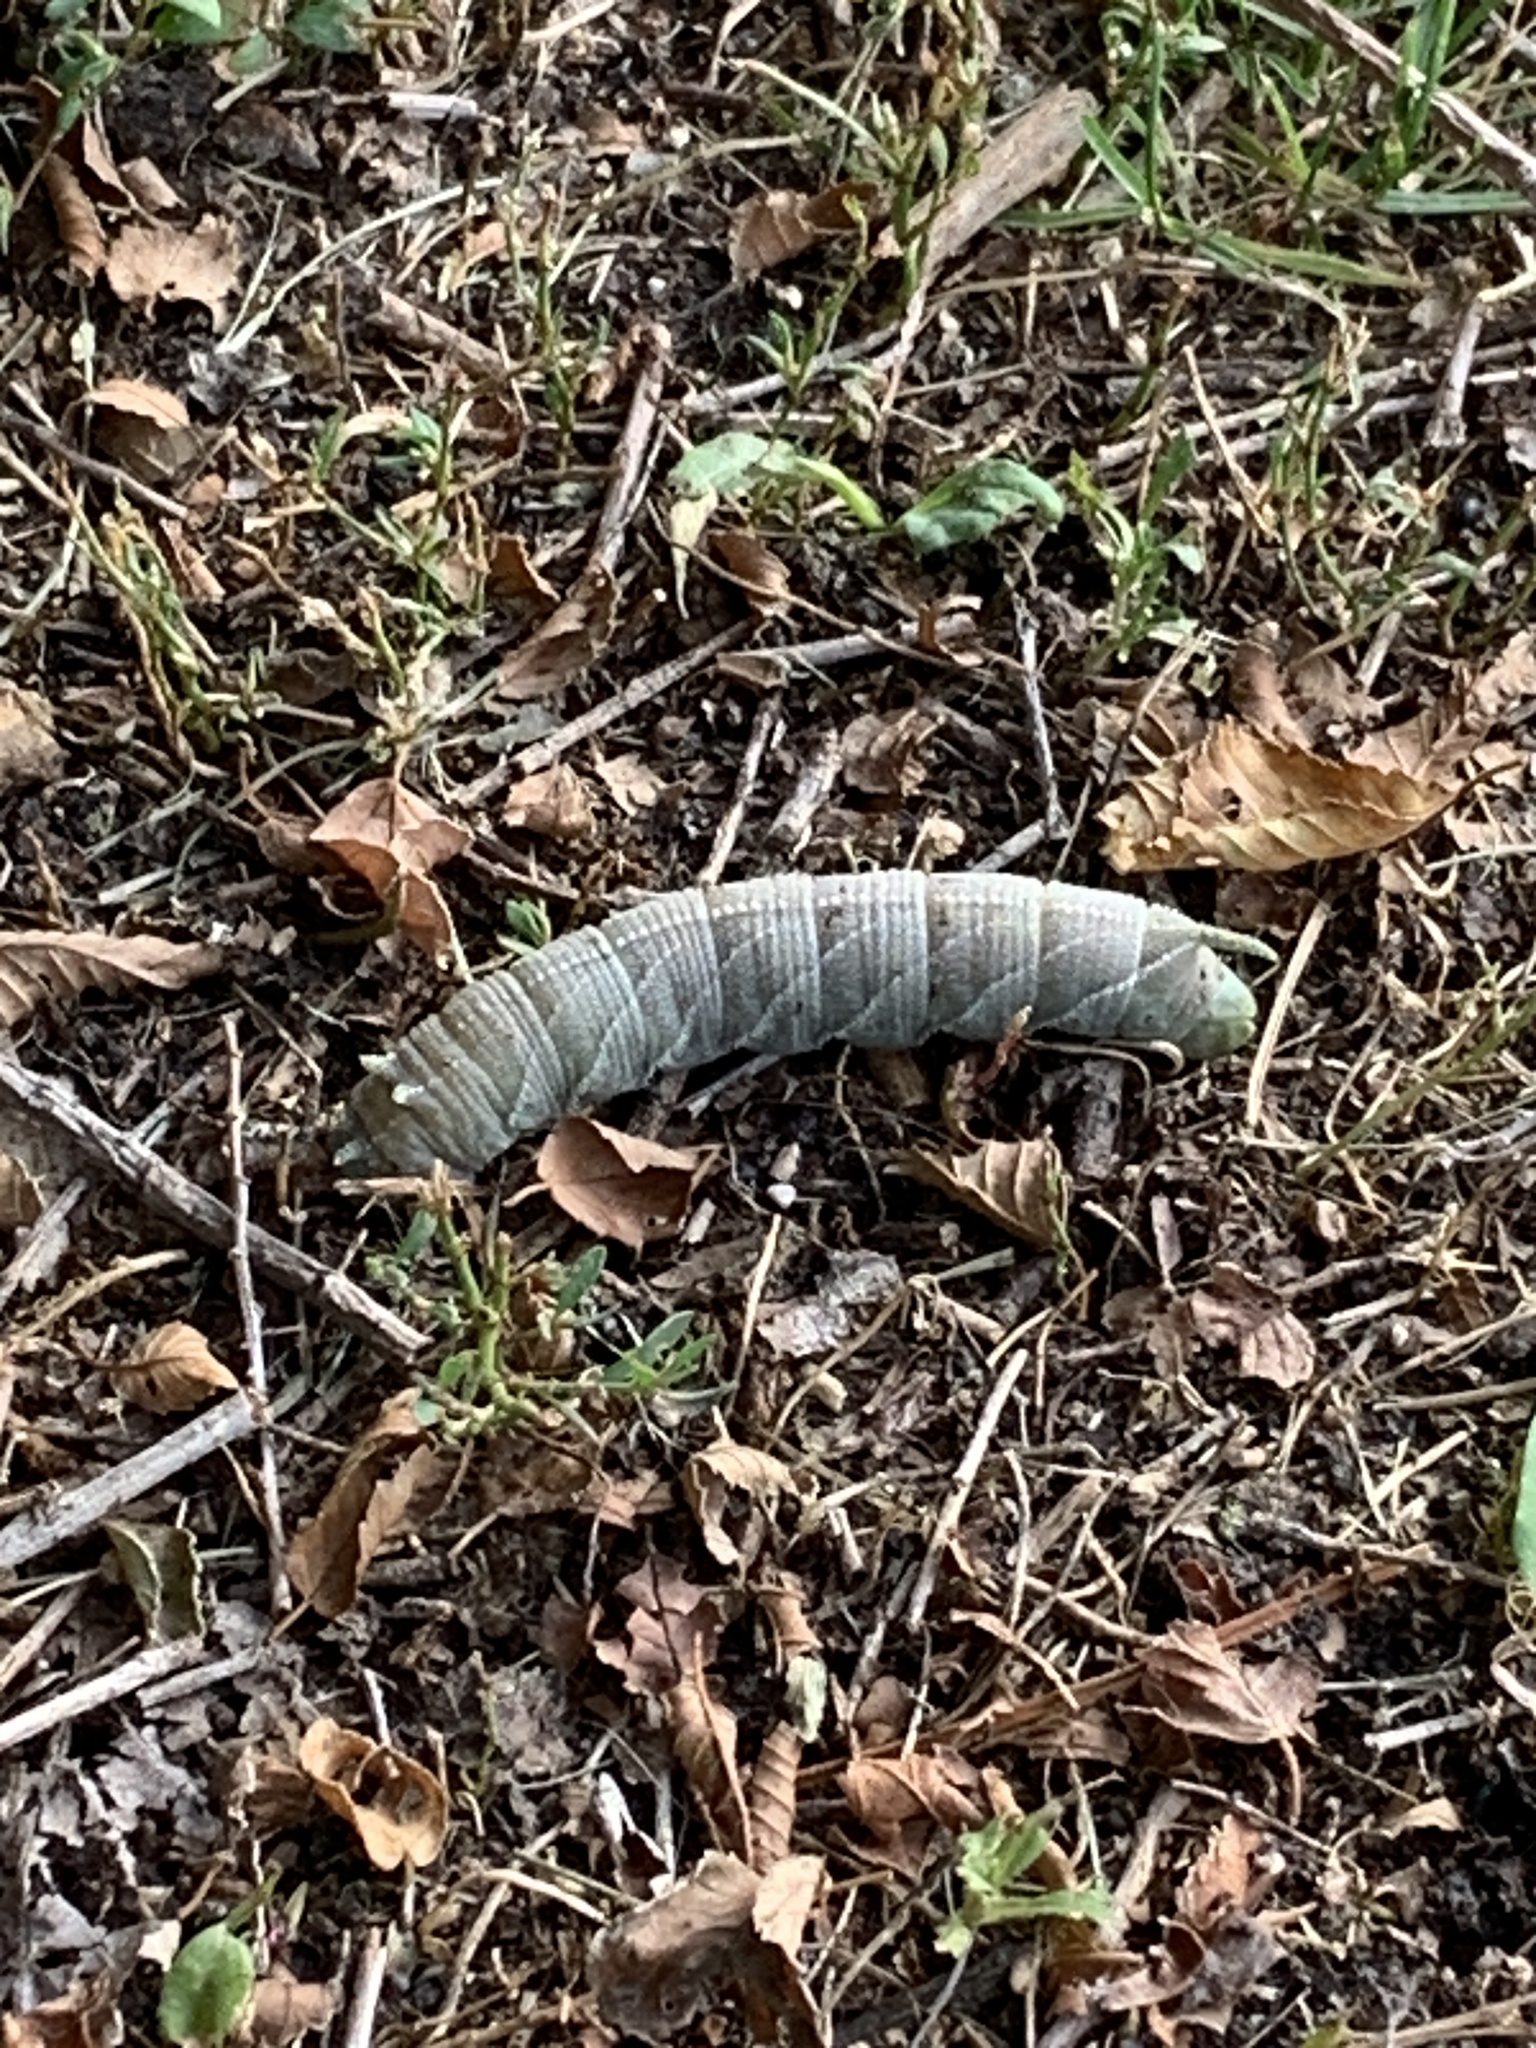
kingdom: Animalia
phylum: Arthropoda
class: Insecta
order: Lepidoptera
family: Sphingidae
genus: Ceratomia
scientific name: Ceratomia amyntor
